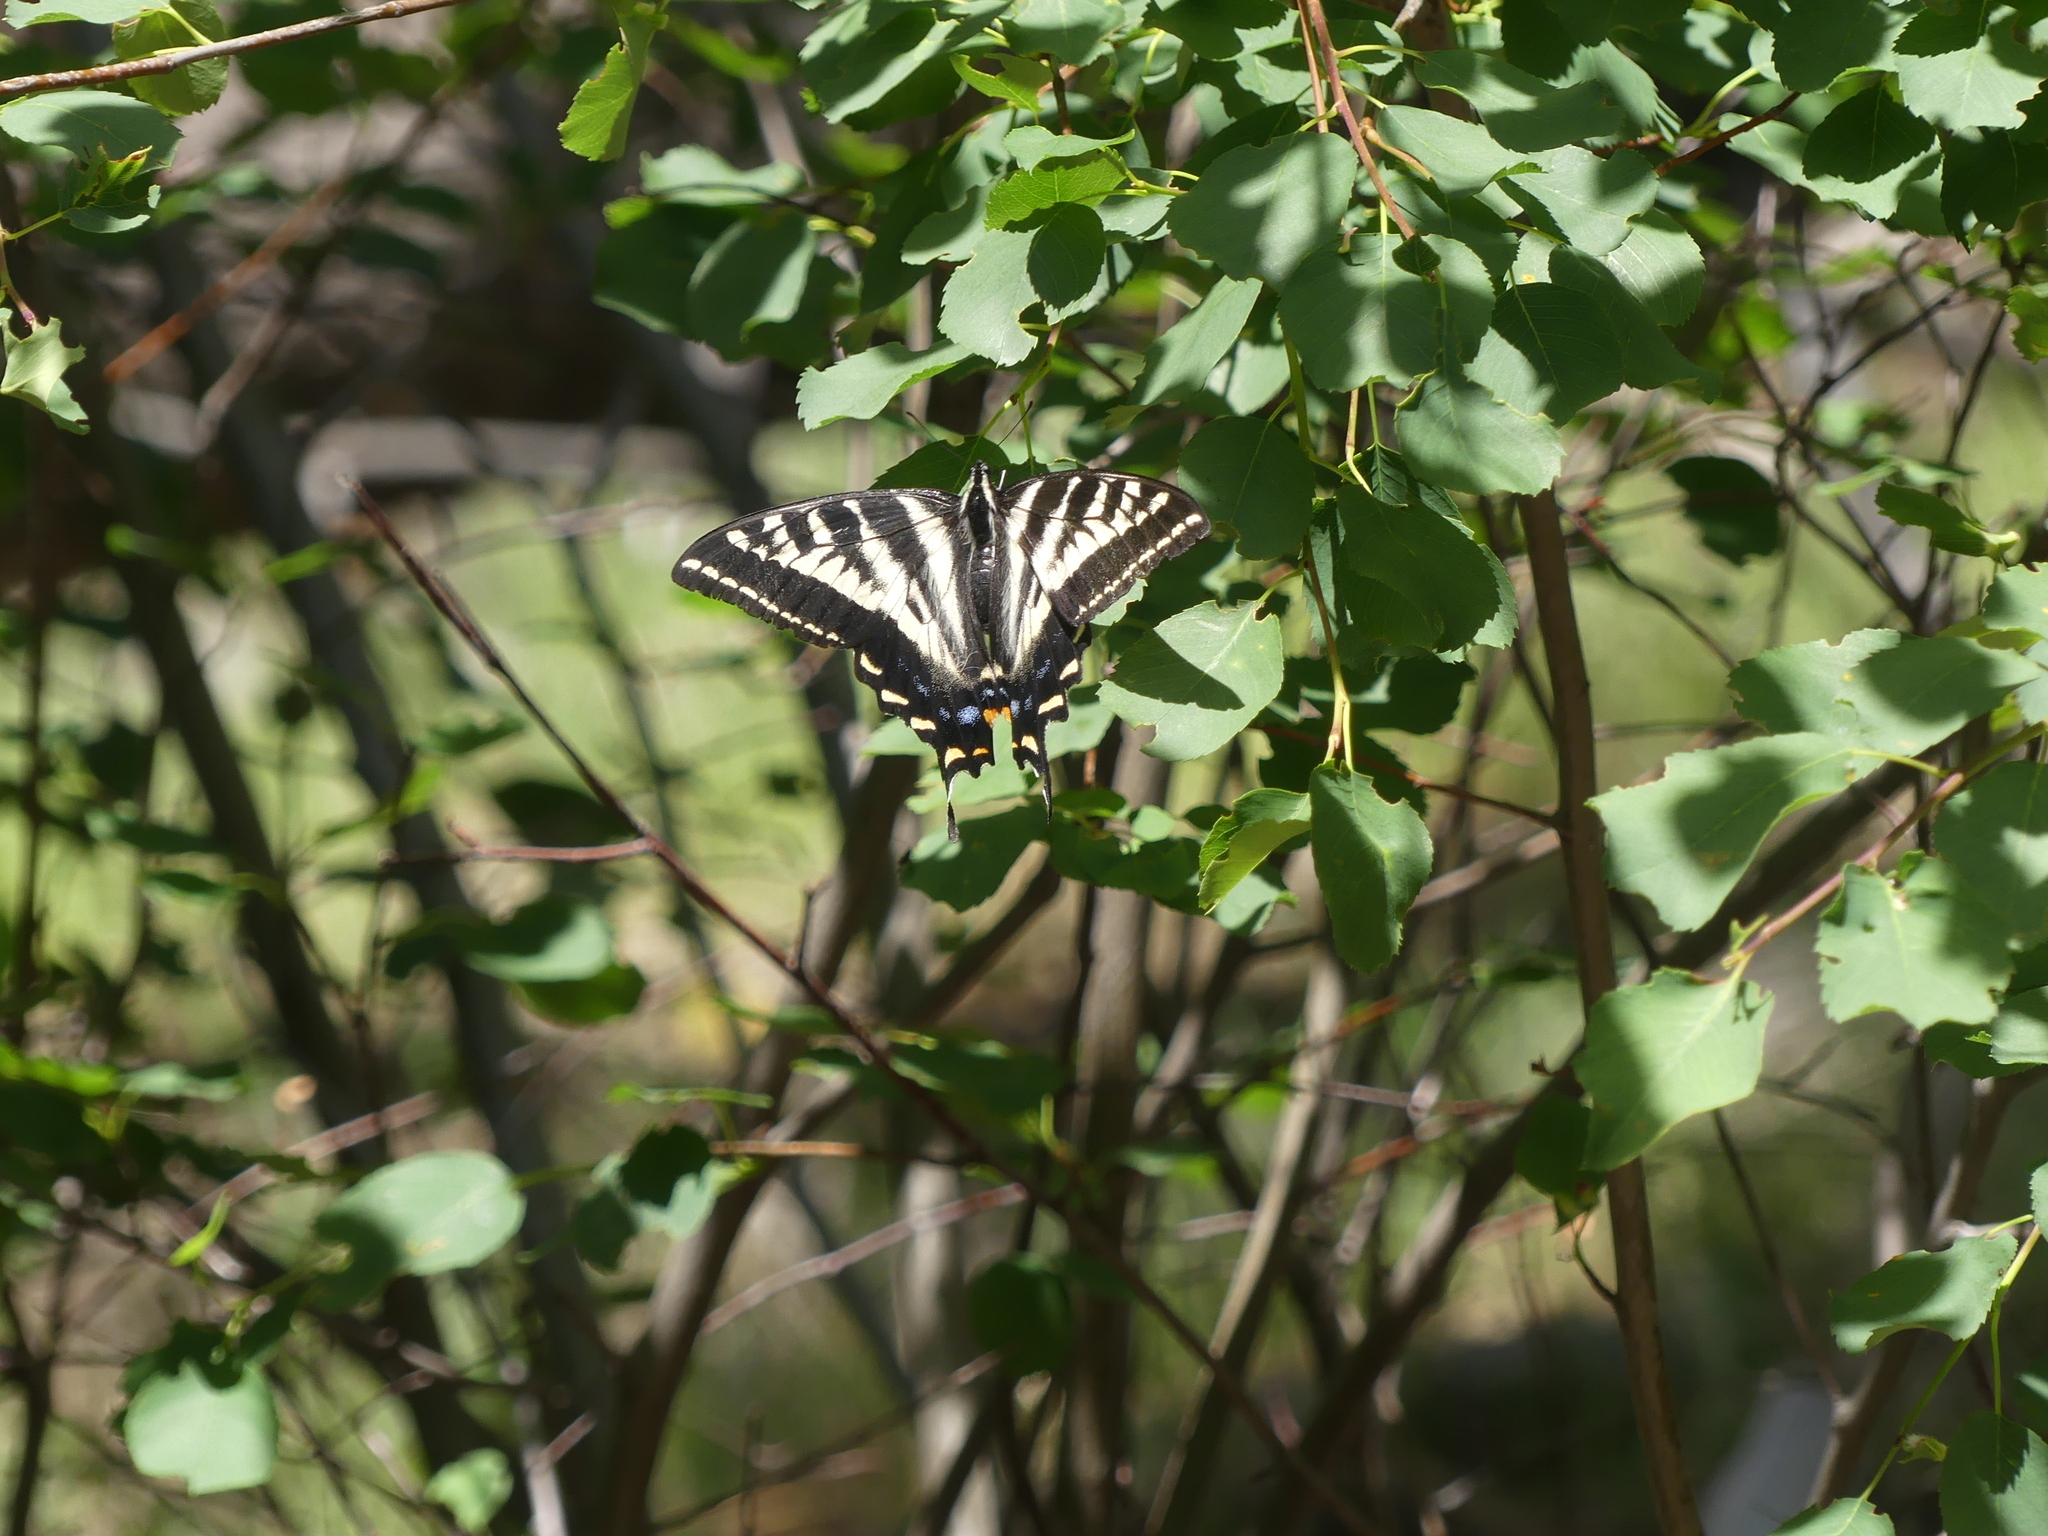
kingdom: Animalia
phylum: Arthropoda
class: Insecta
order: Lepidoptera
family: Papilionidae
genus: Papilio
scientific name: Papilio eurymedon
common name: Pale tiger swallowtail
